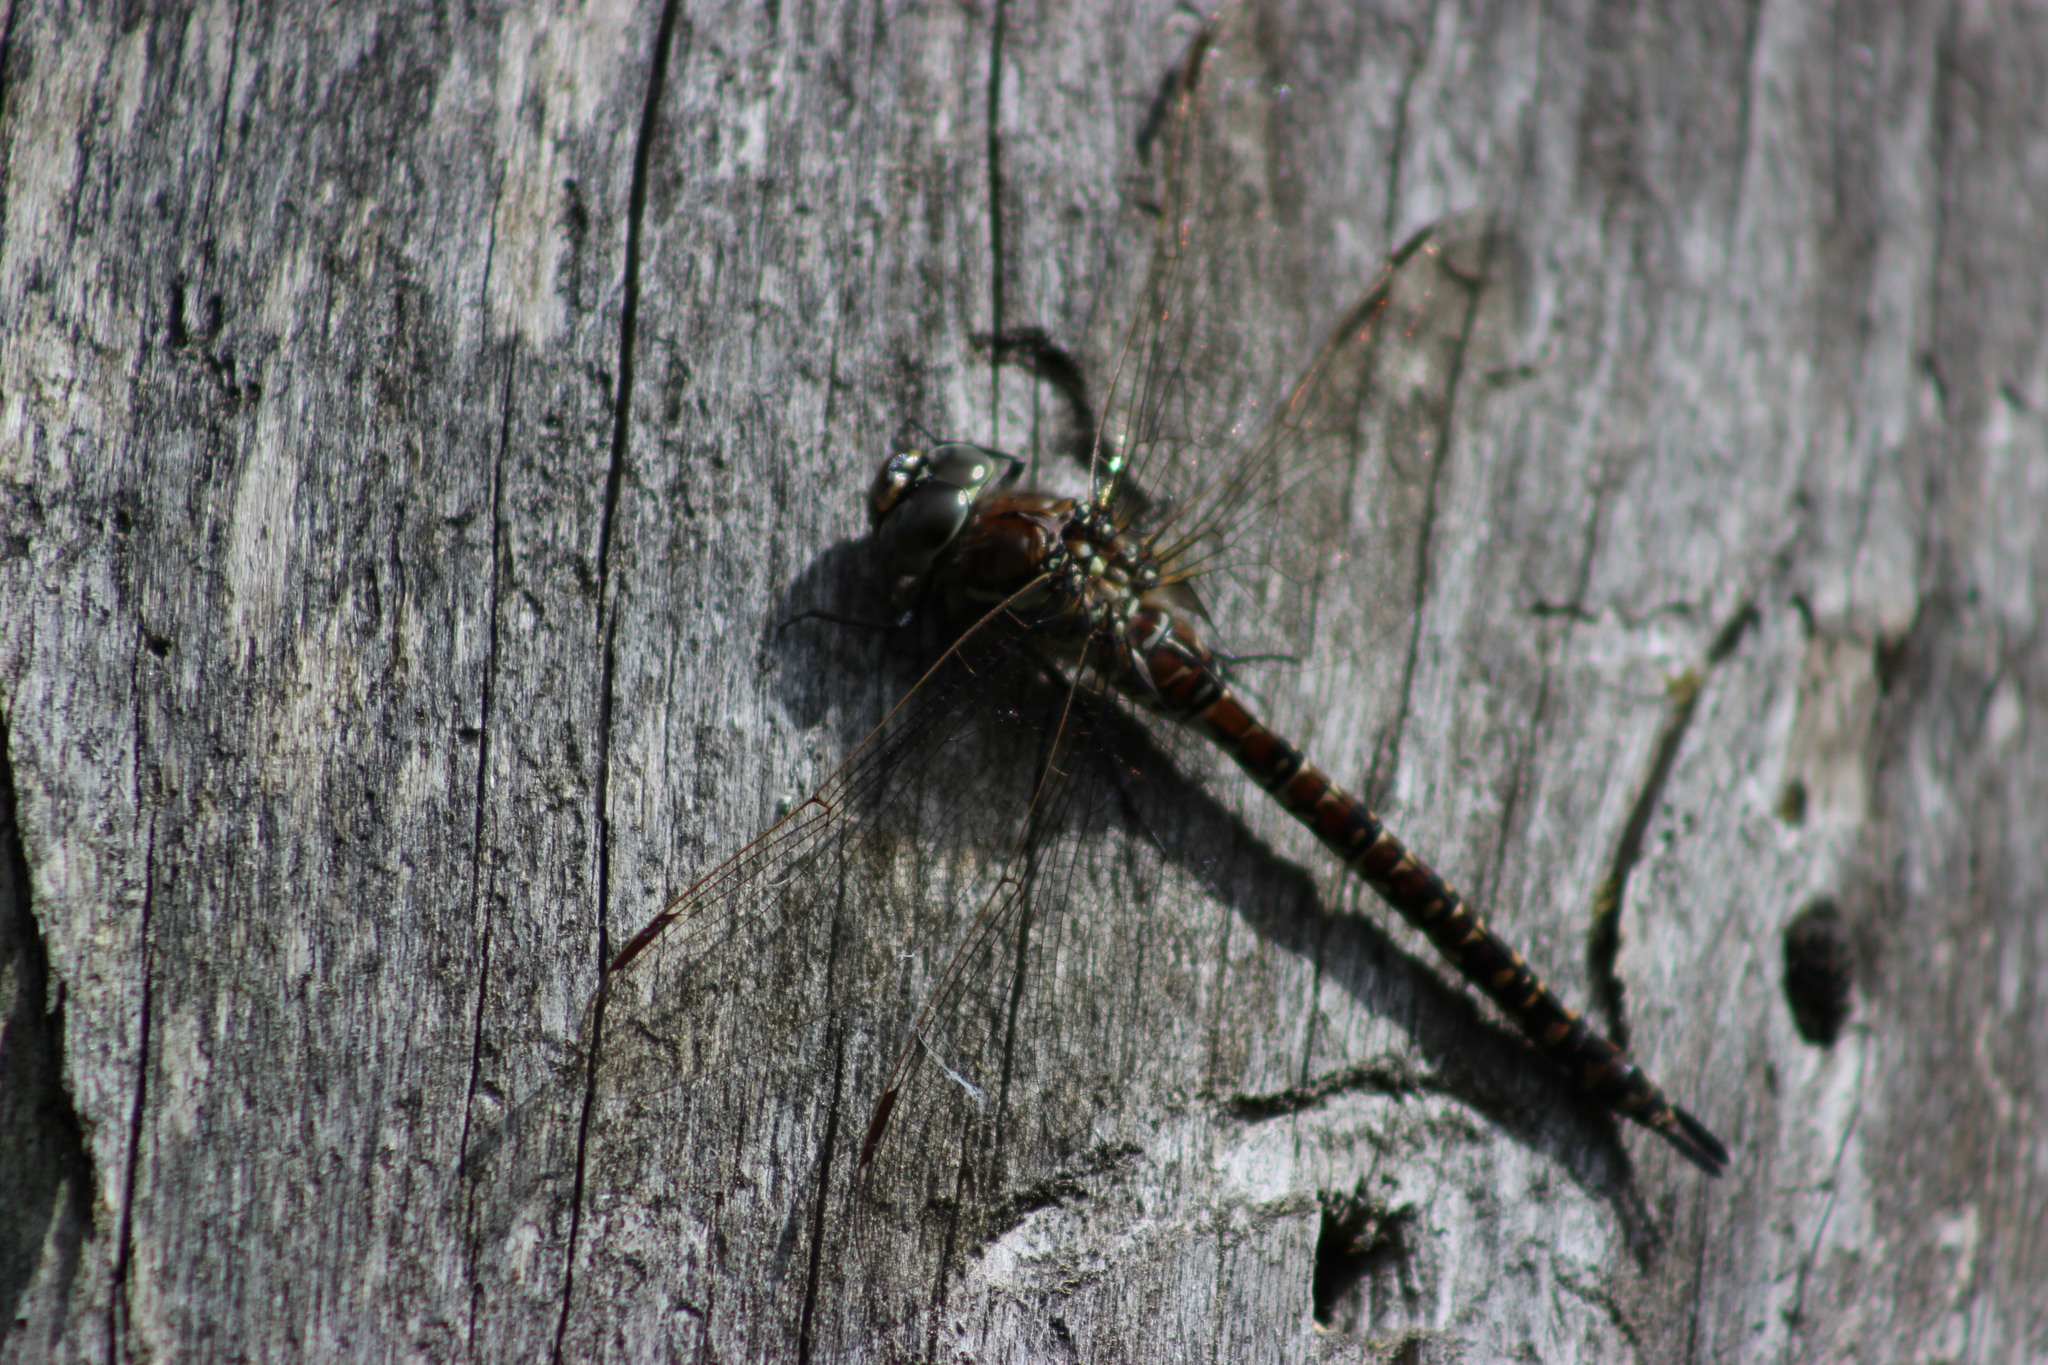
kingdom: Animalia
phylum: Arthropoda
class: Insecta
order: Odonata
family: Aeshnidae
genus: Aeshna
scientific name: Aeshna subarctica
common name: Subarctic darner
